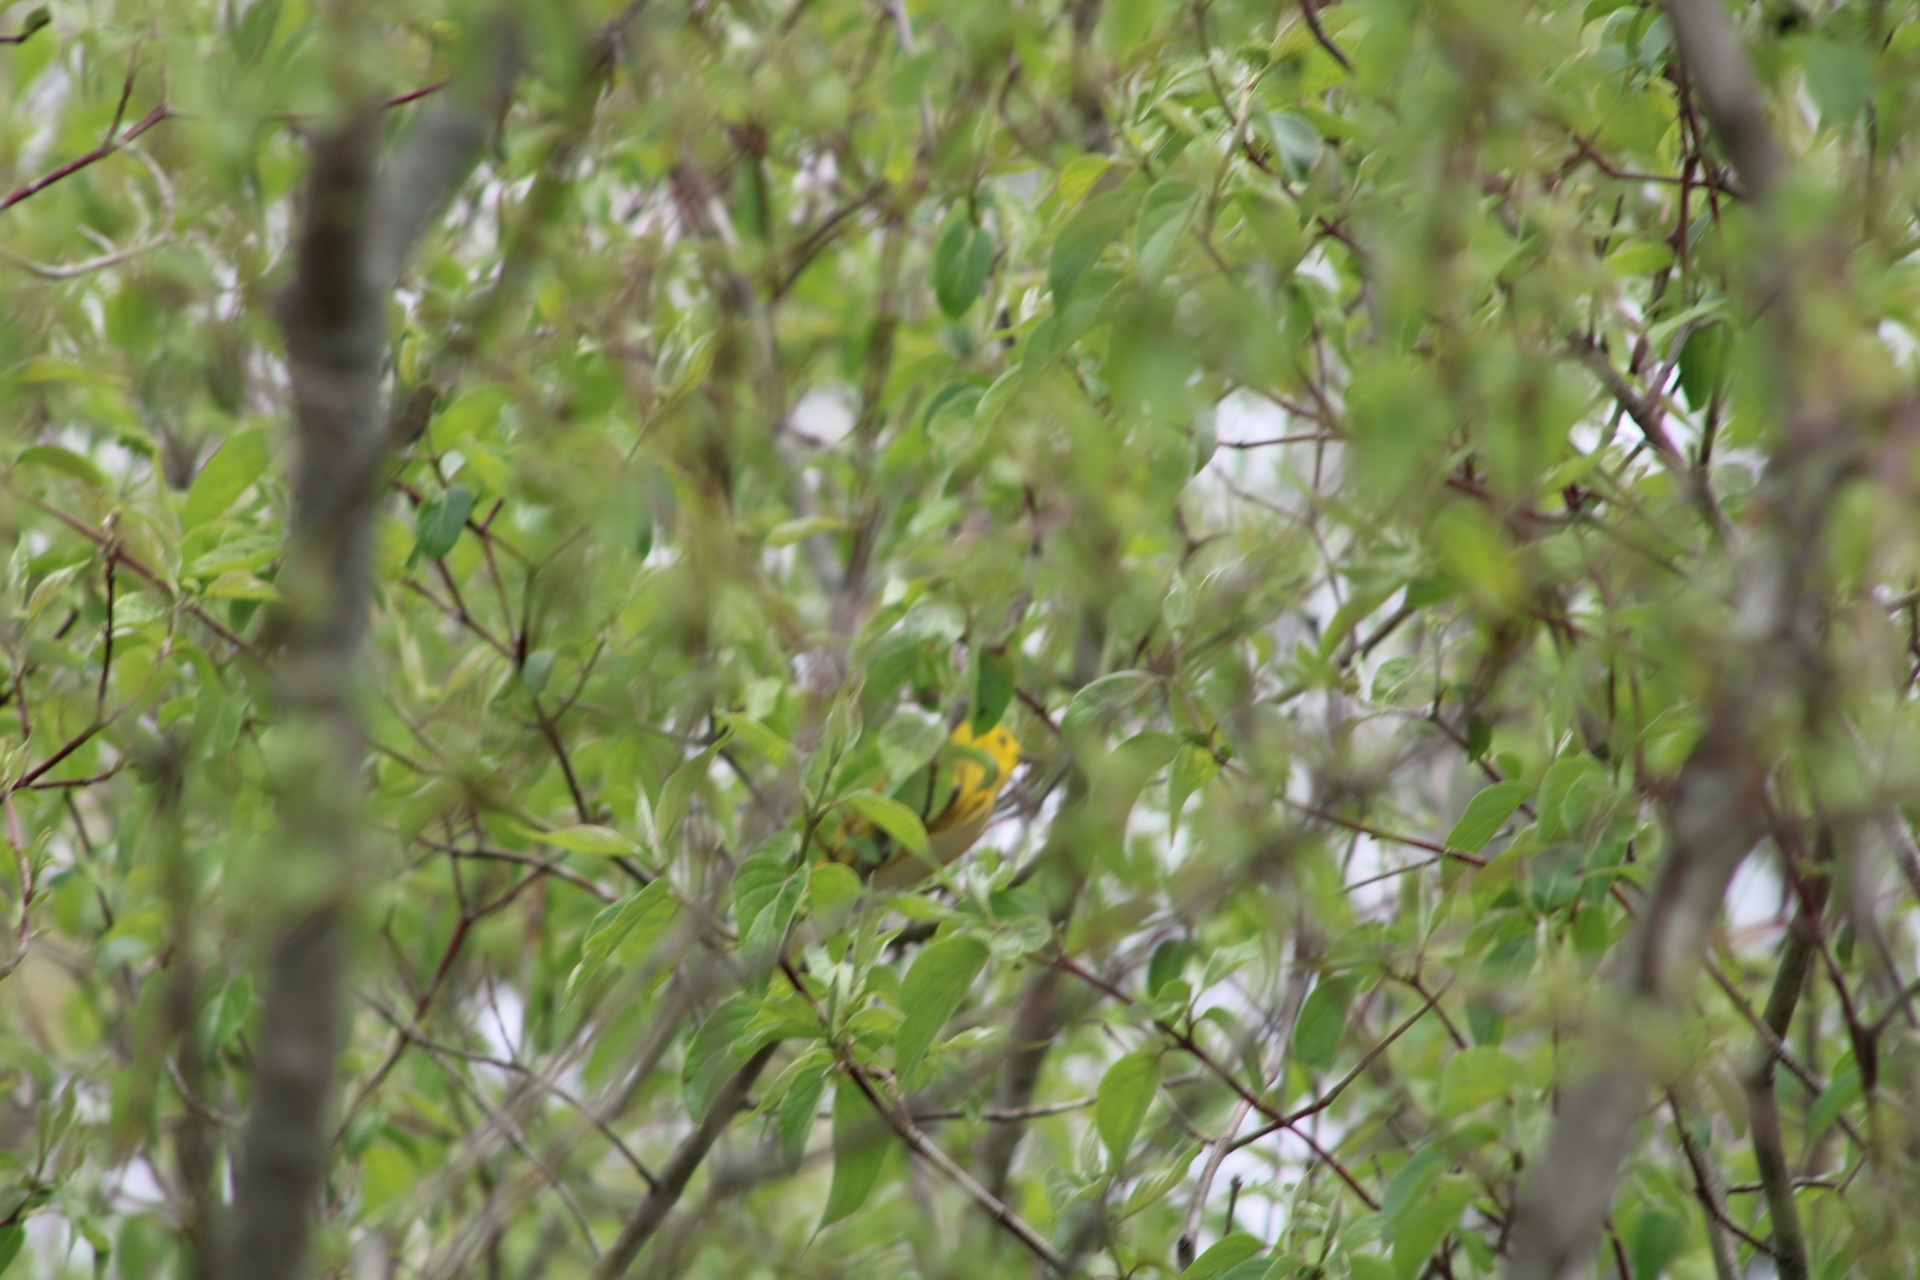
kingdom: Animalia
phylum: Chordata
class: Aves
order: Passeriformes
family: Parulidae
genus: Setophaga
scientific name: Setophaga petechia
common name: Yellow warbler
